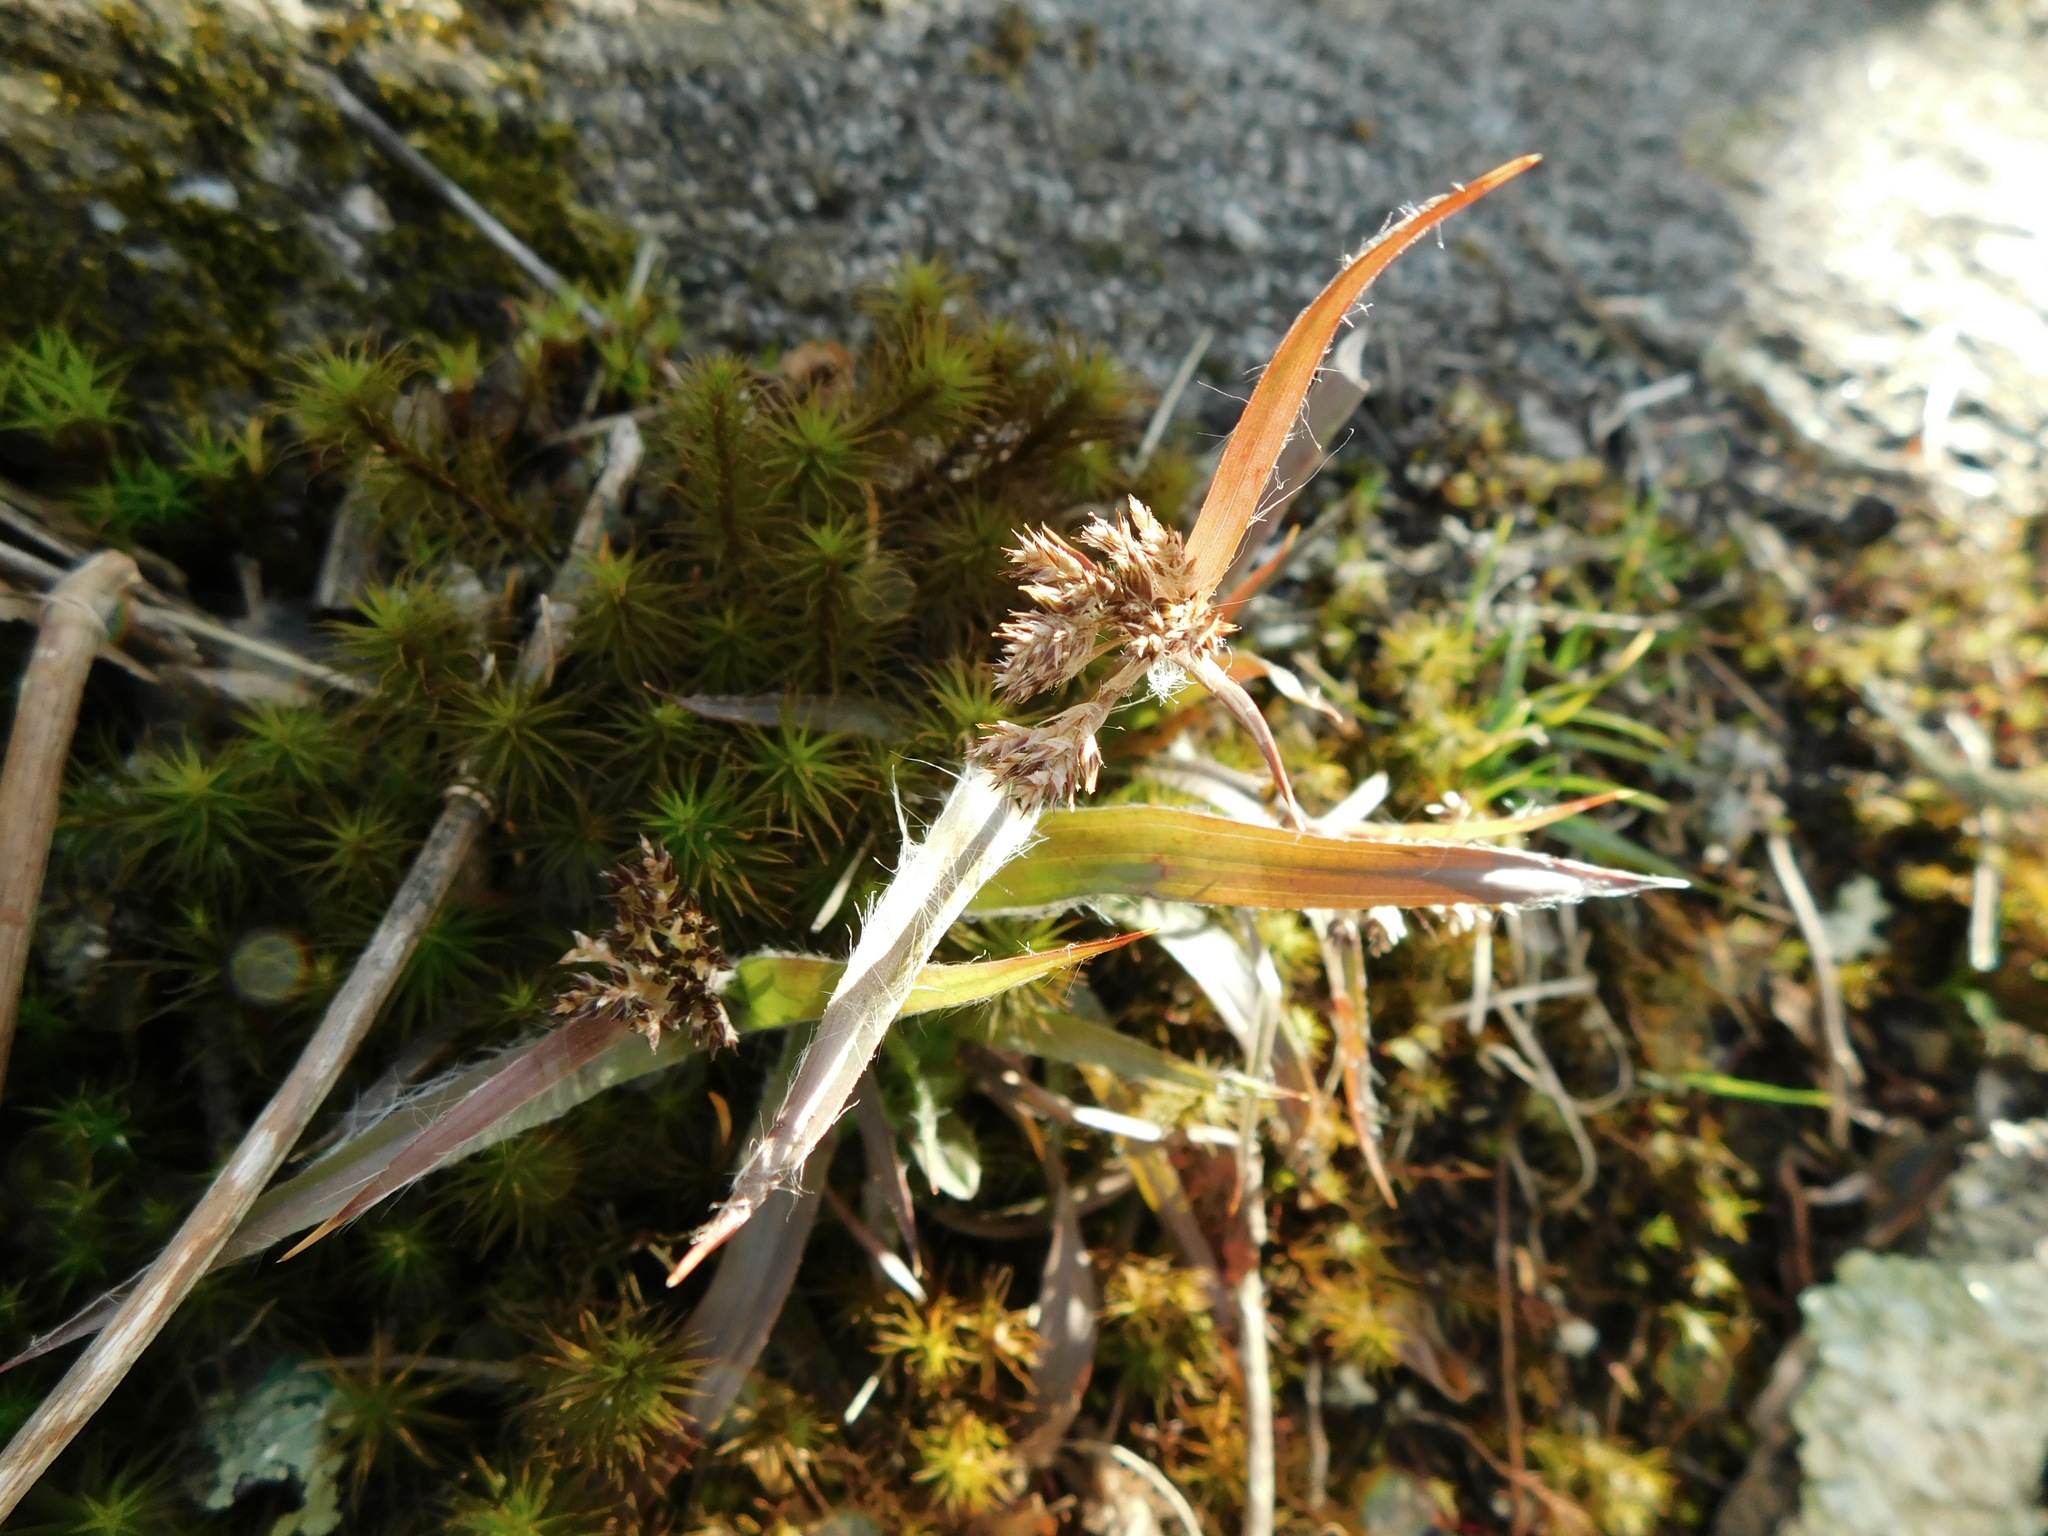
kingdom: Plantae
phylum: Tracheophyta
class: Liliopsida
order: Poales
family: Juncaceae
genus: Luzula
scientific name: Luzula echinata
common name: Hedgehog woodrush
